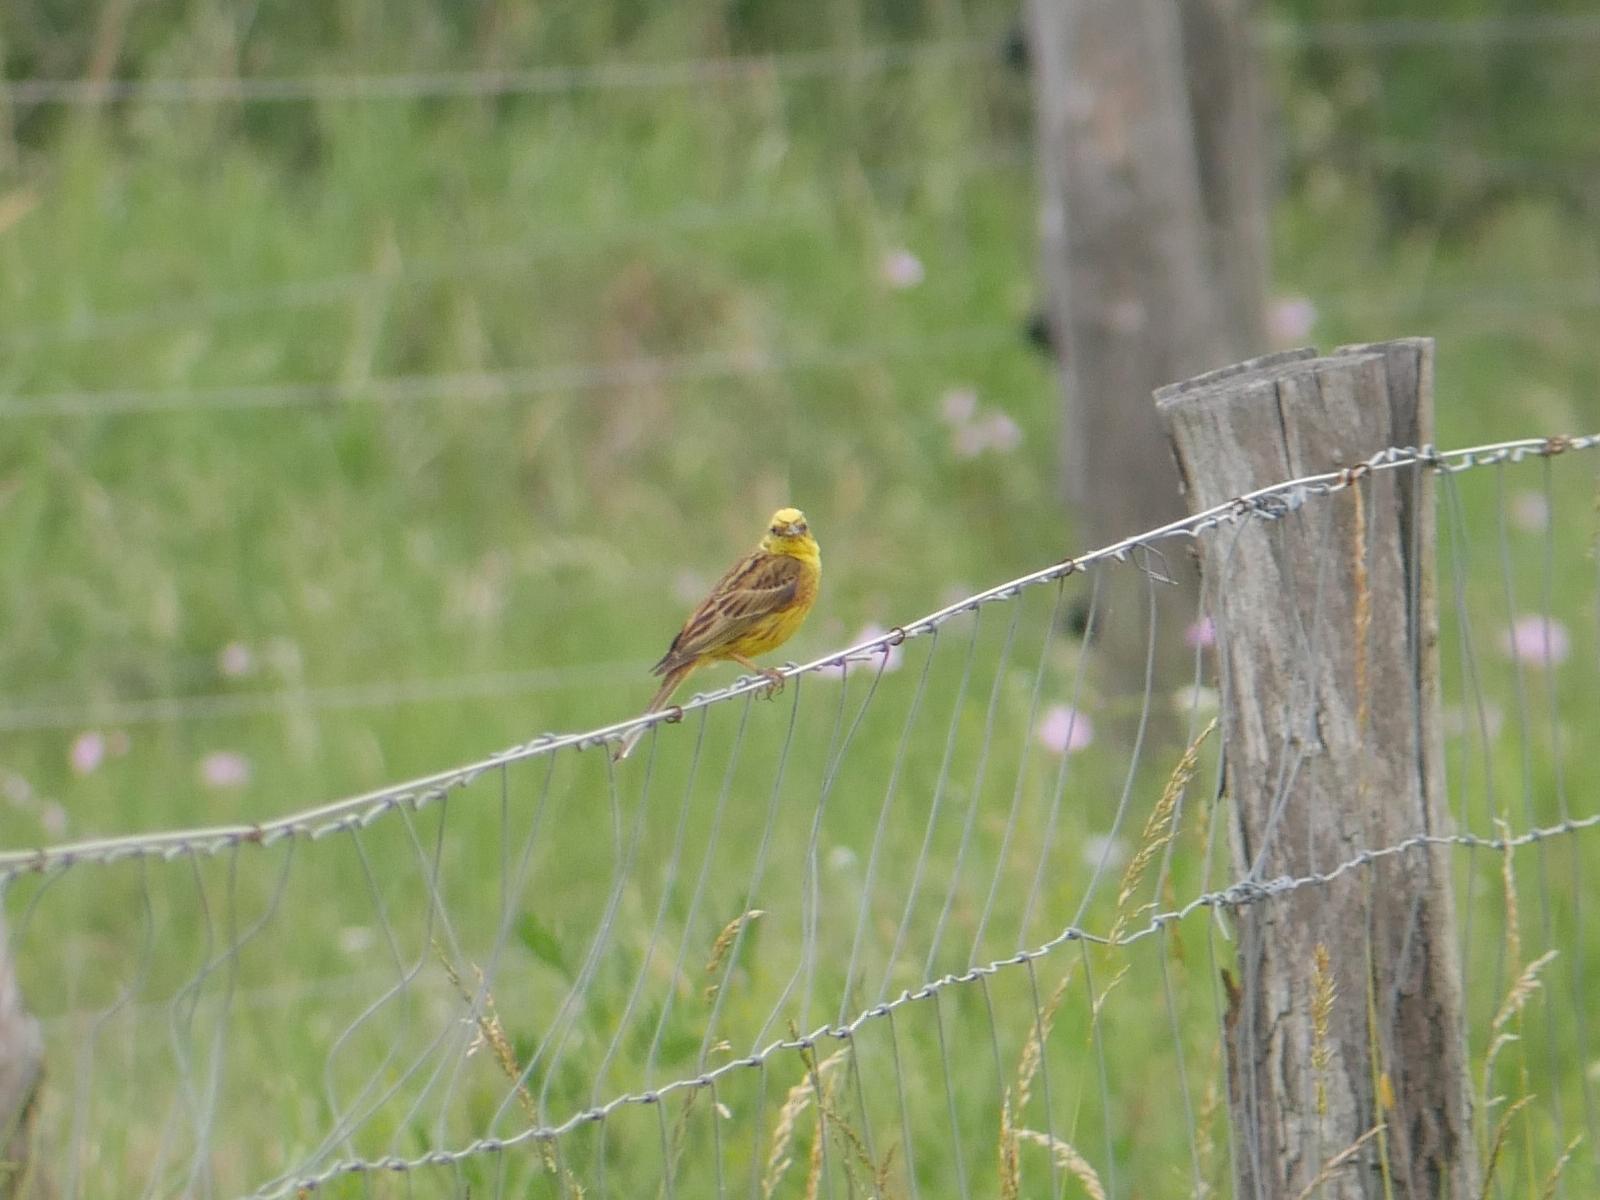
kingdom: Animalia
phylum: Chordata
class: Aves
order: Passeriformes
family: Emberizidae
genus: Emberiza
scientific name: Emberiza citrinella
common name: Yellowhammer
